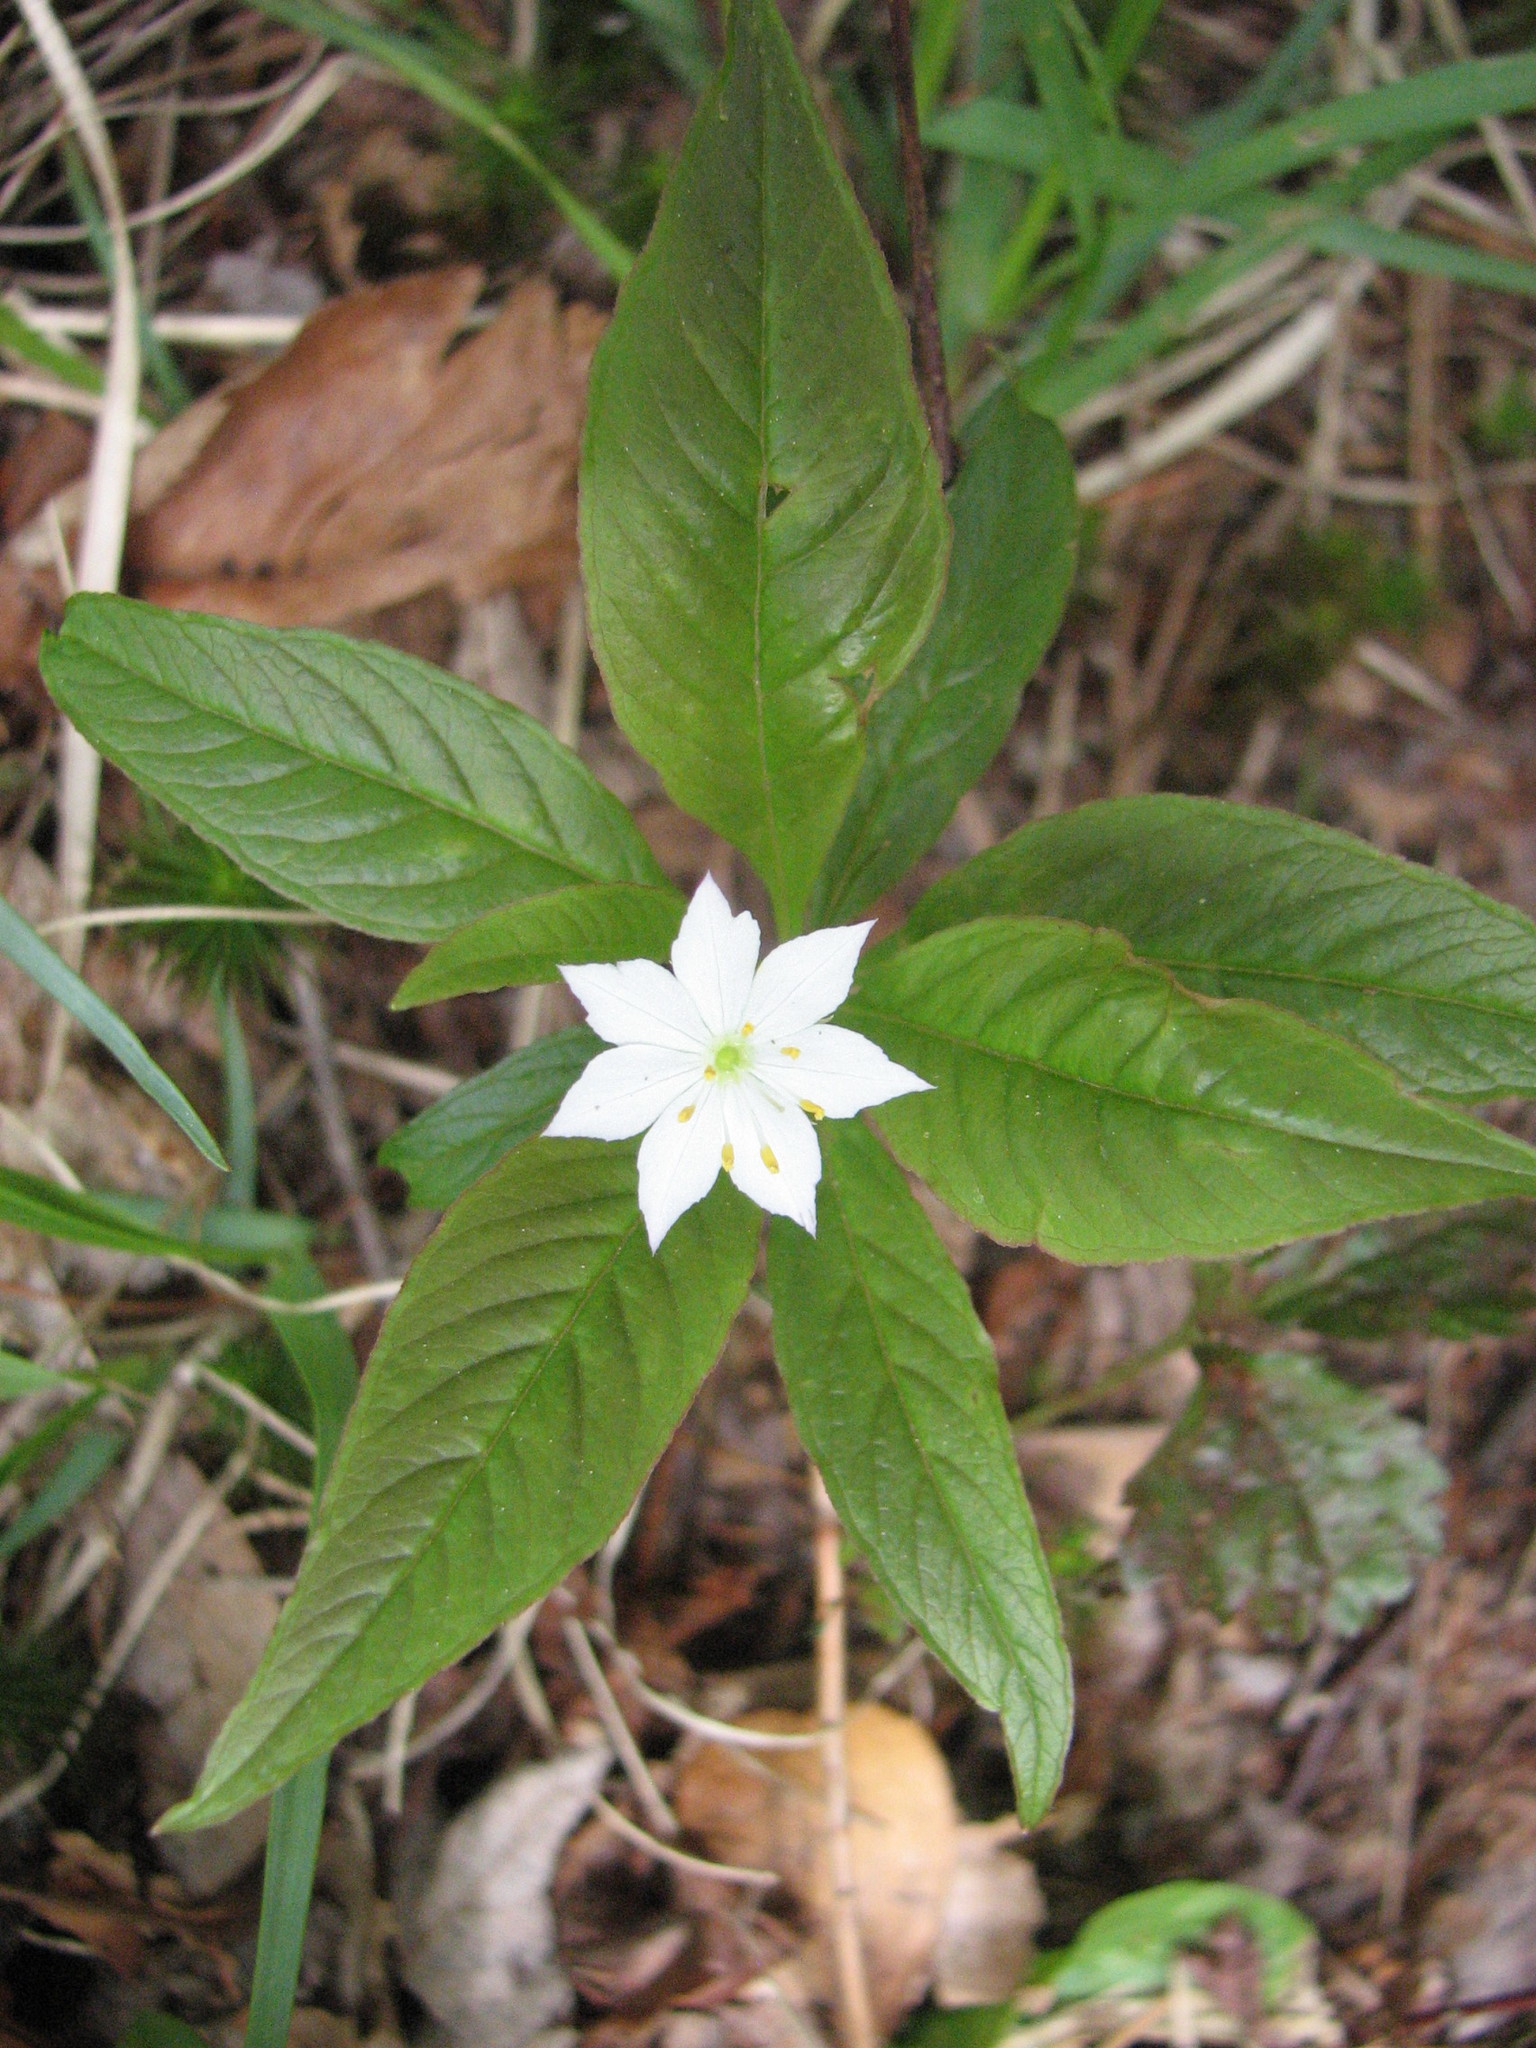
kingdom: Plantae
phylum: Tracheophyta
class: Magnoliopsida
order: Ericales
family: Primulaceae
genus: Lysimachia
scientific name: Lysimachia borealis
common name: American starflower
